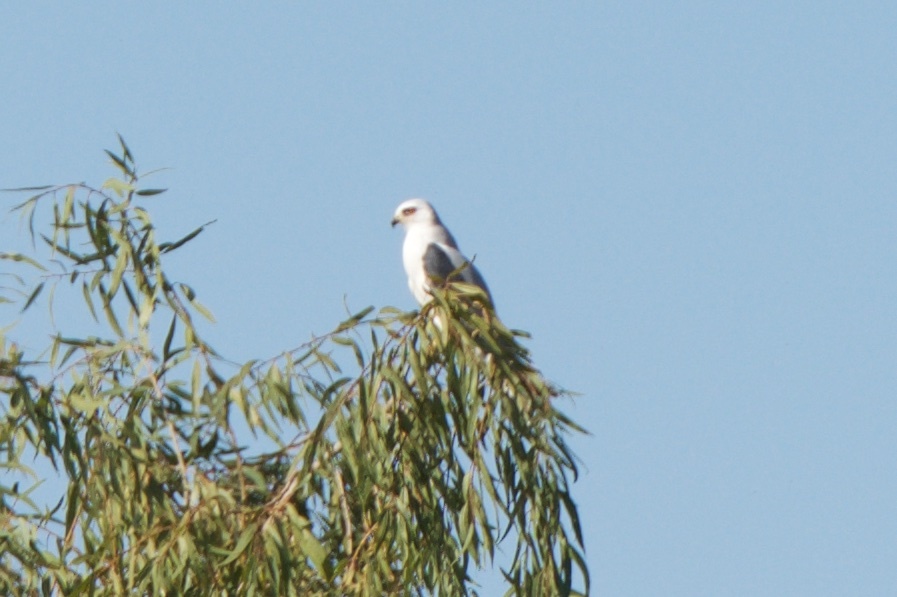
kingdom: Animalia
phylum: Chordata
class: Aves
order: Accipitriformes
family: Accipitridae
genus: Elanus
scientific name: Elanus leucurus
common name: White-tailed kite
